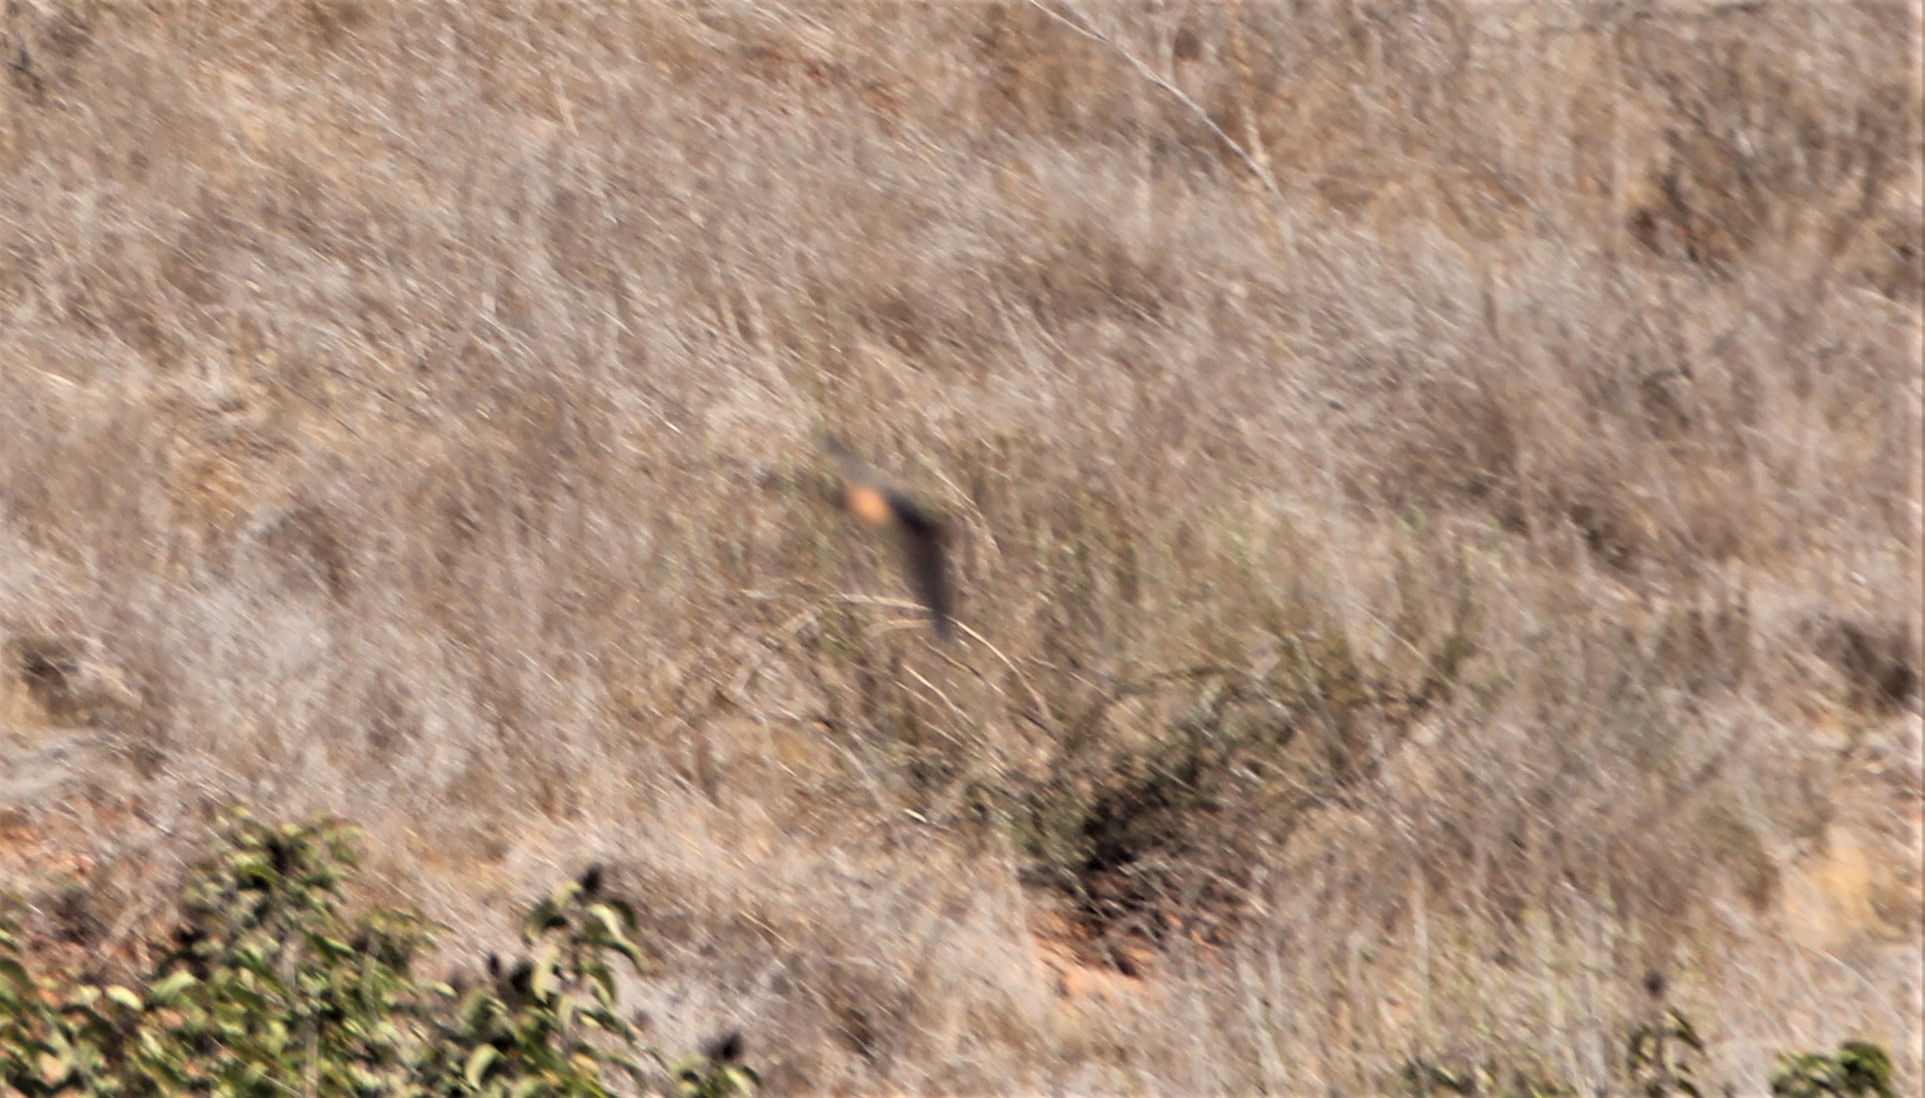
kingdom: Animalia
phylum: Chordata
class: Aves
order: Passeriformes
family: Hirundinidae
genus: Petrochelidon
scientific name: Petrochelidon pyrrhonota
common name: American cliff swallow
